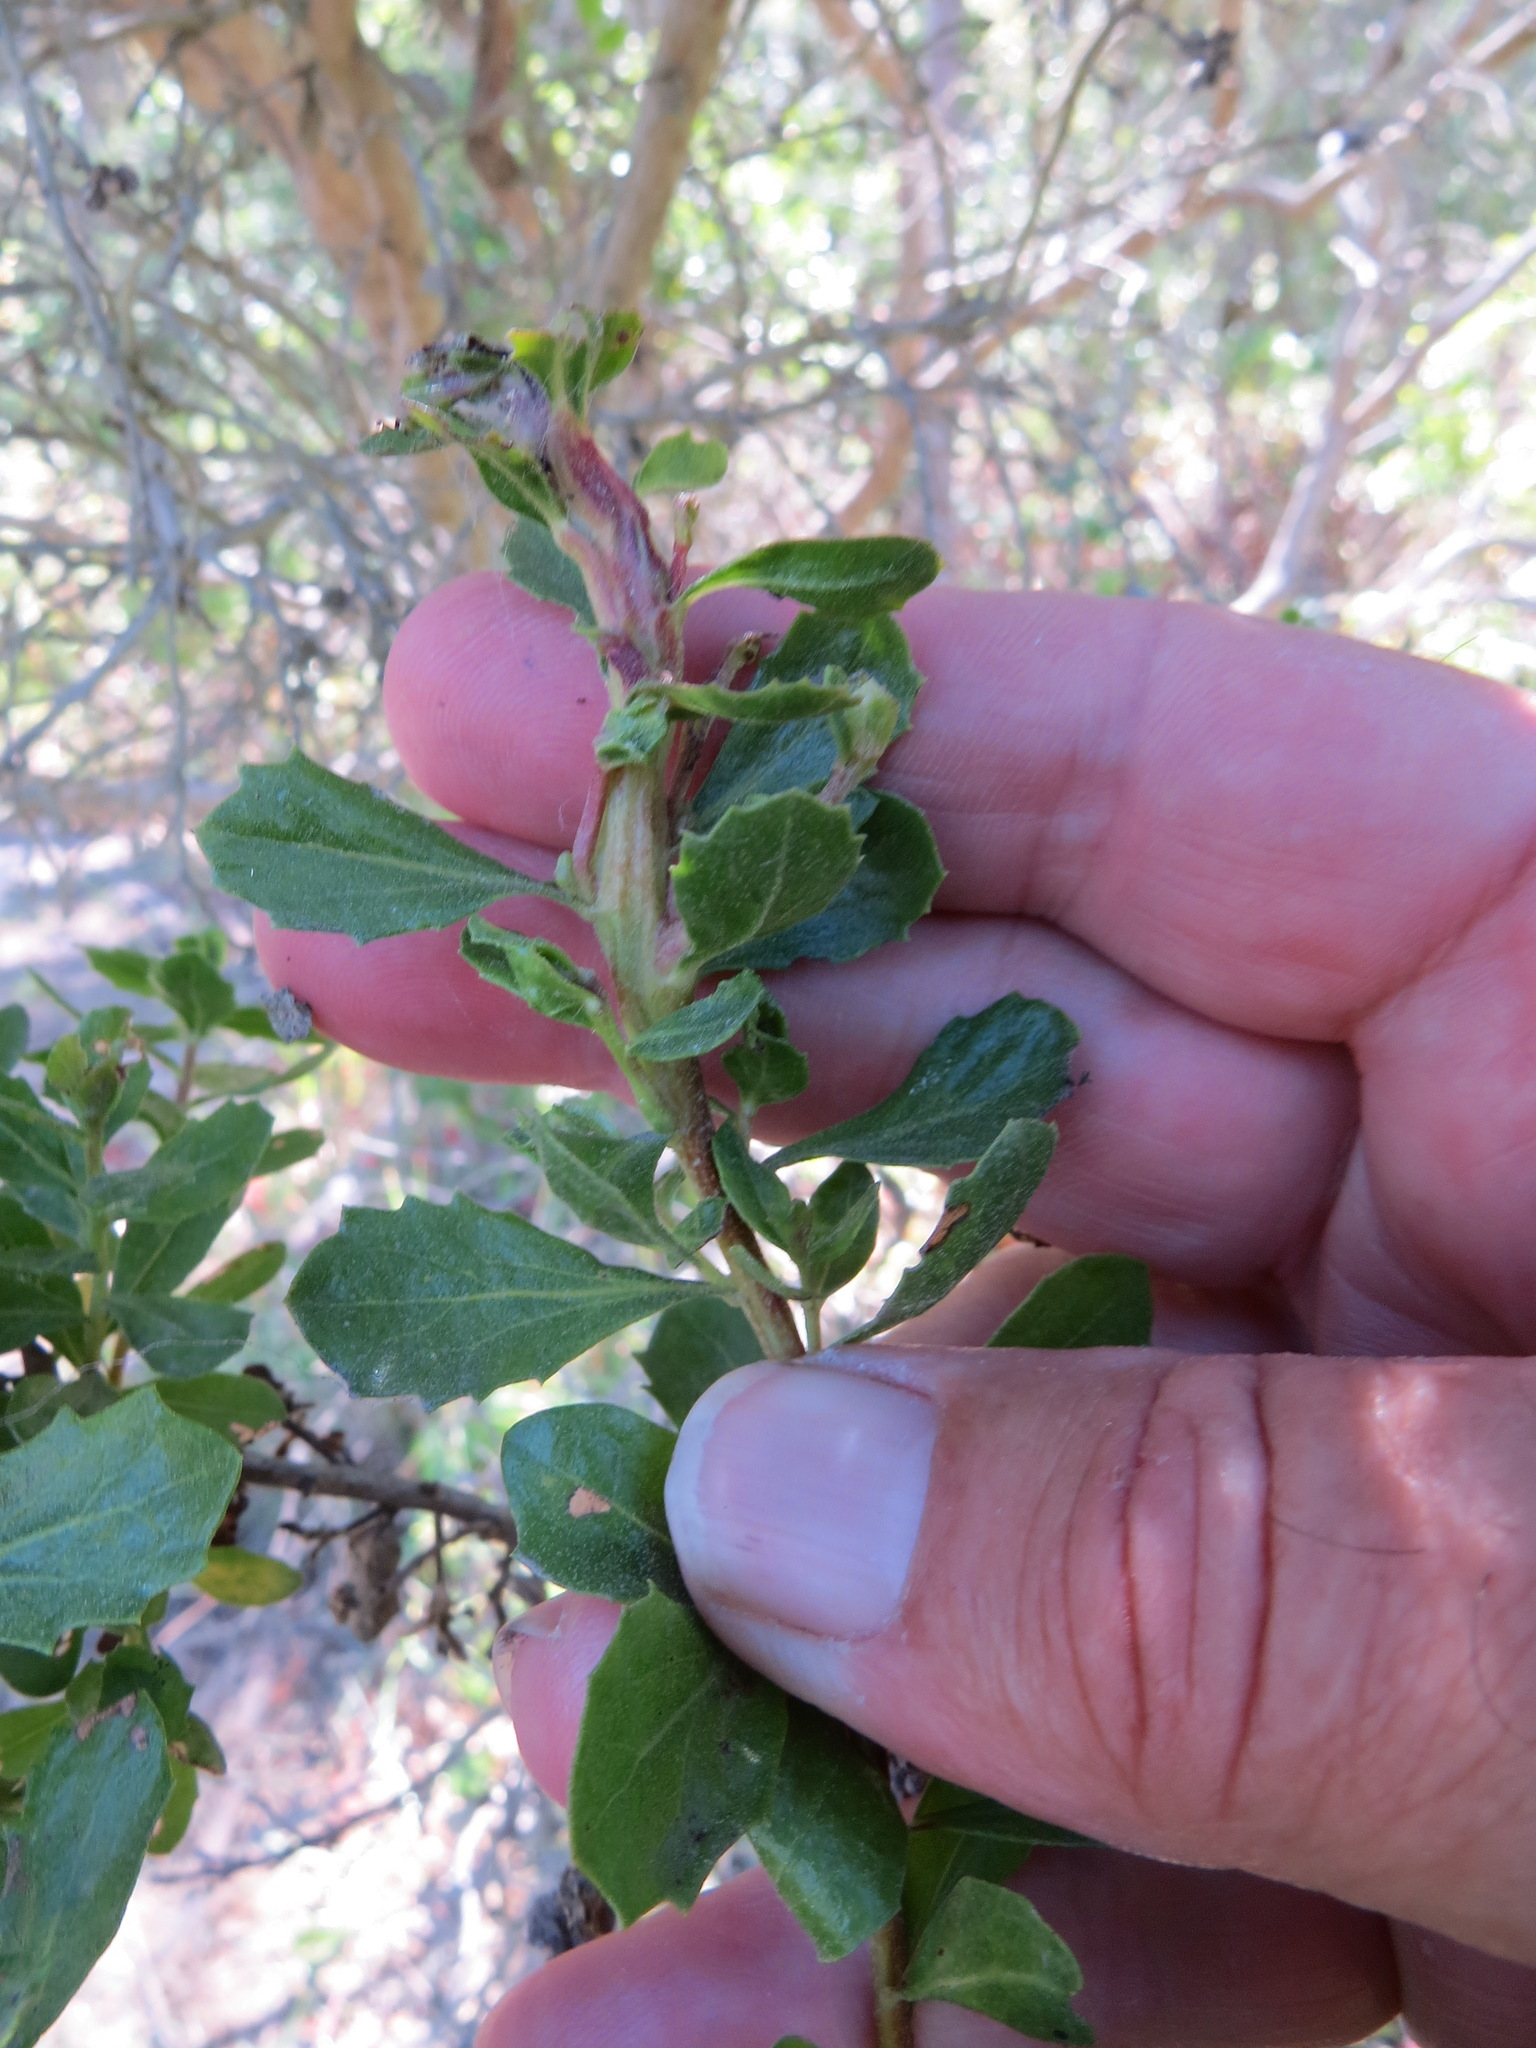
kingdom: Animalia
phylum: Arthropoda
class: Insecta
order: Diptera
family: Cecidomyiidae
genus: Rhopalomyia
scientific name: Rhopalomyia baccharis
